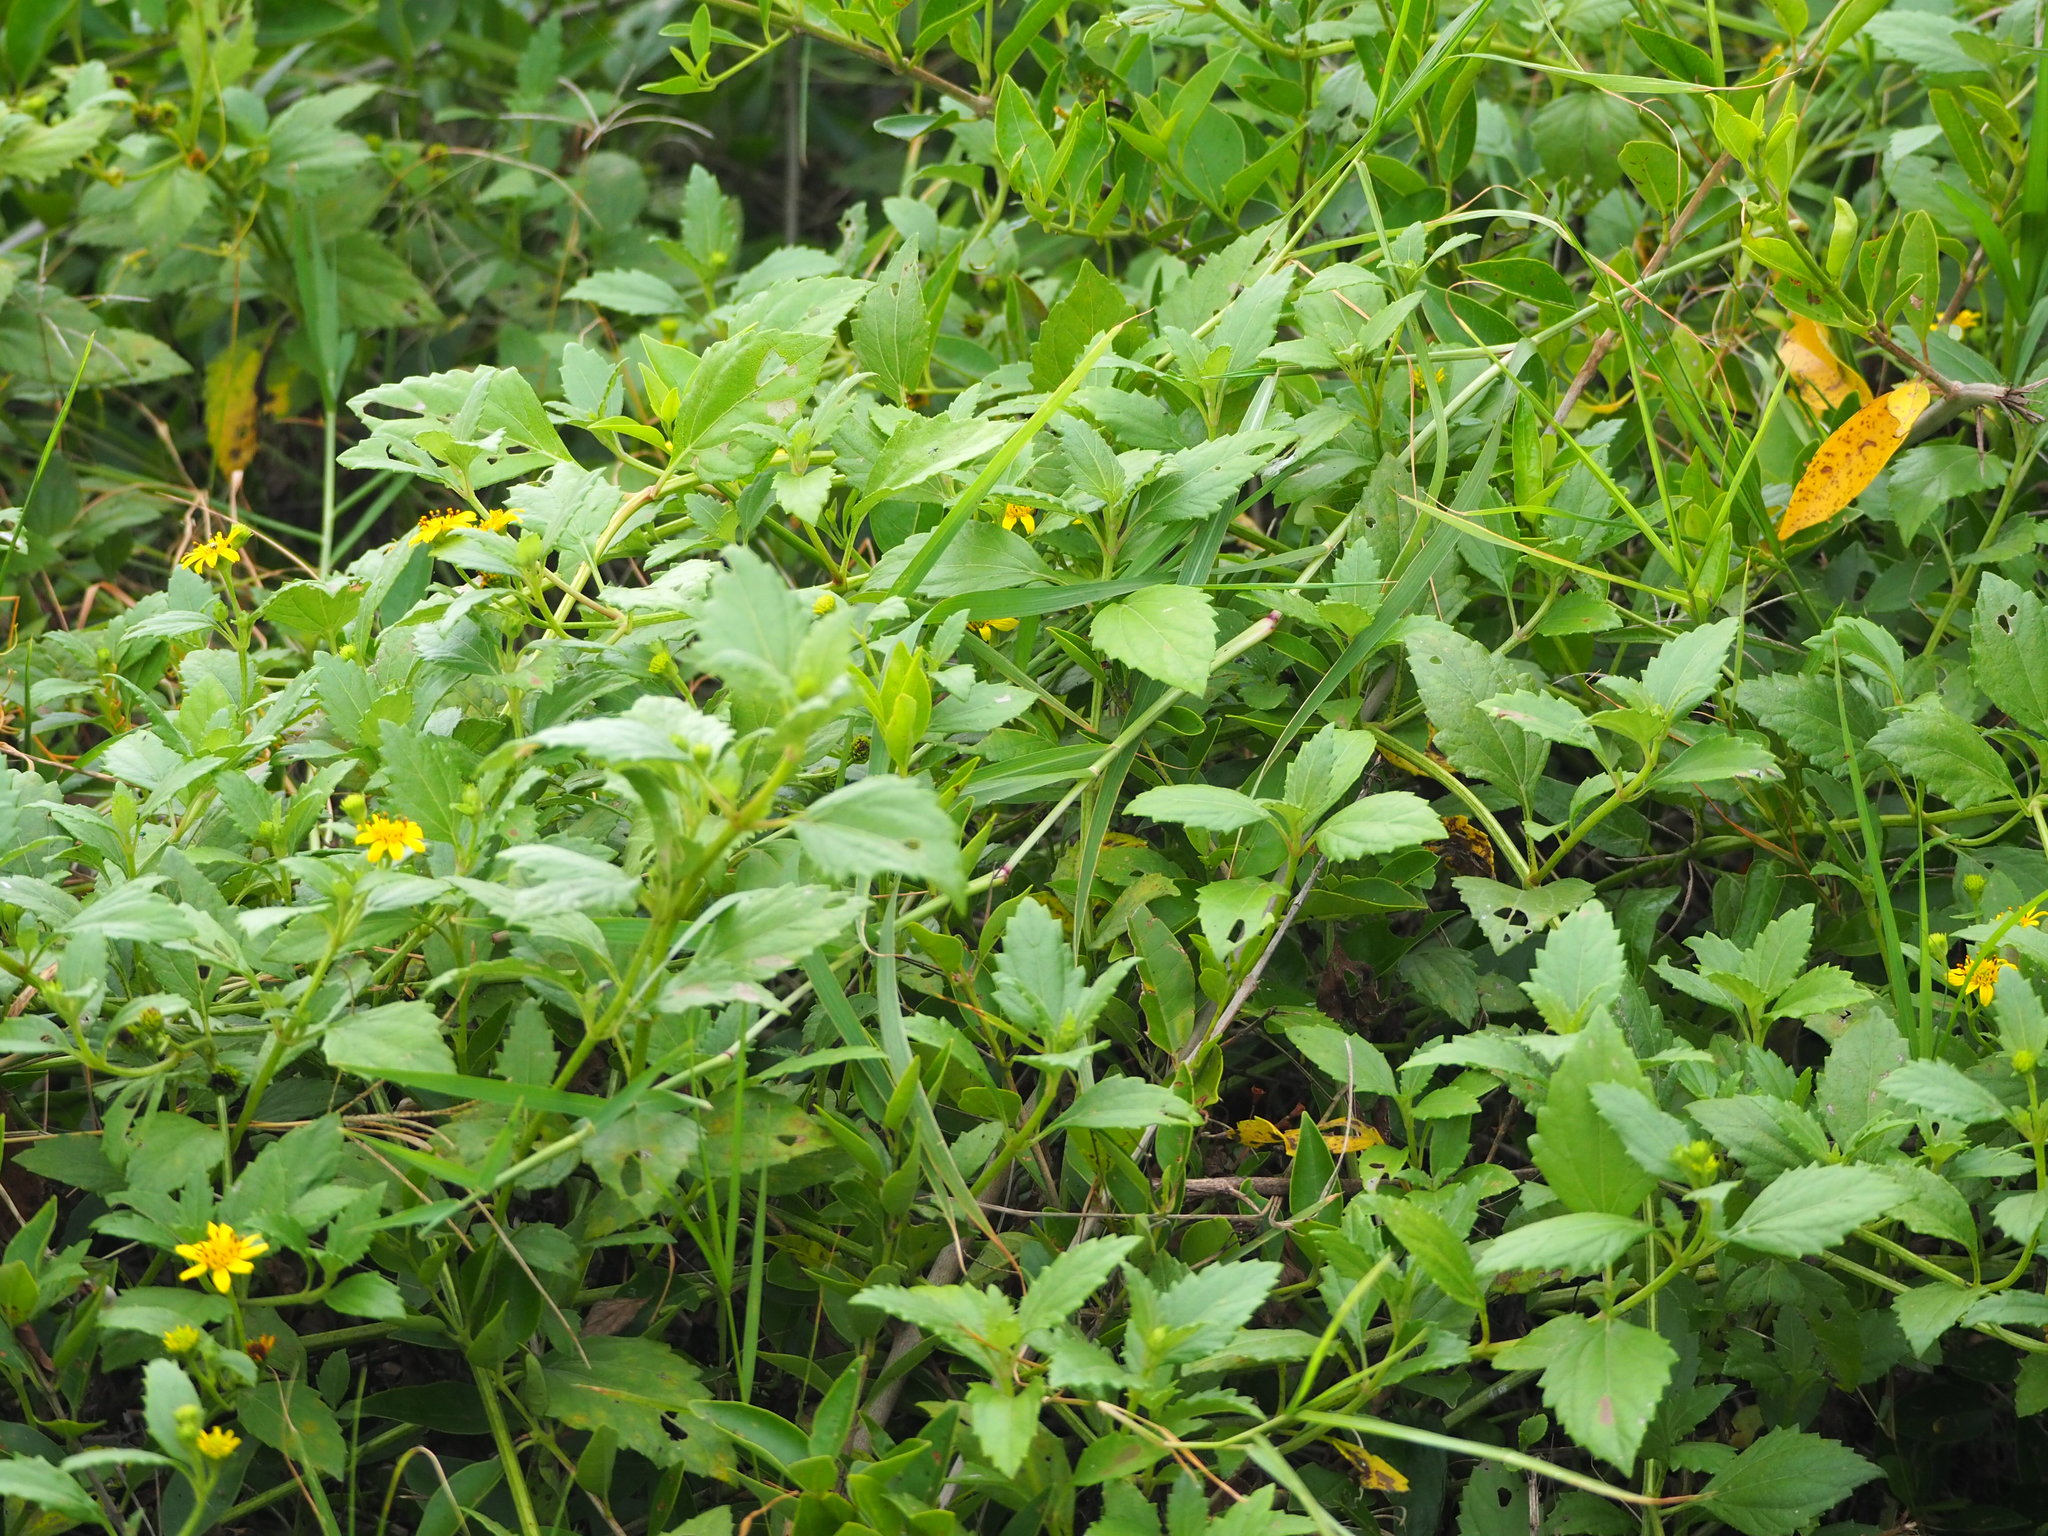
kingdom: Plantae
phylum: Tracheophyta
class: Magnoliopsida
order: Asterales
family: Asteraceae
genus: Wollastonia
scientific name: Wollastonia biflora
